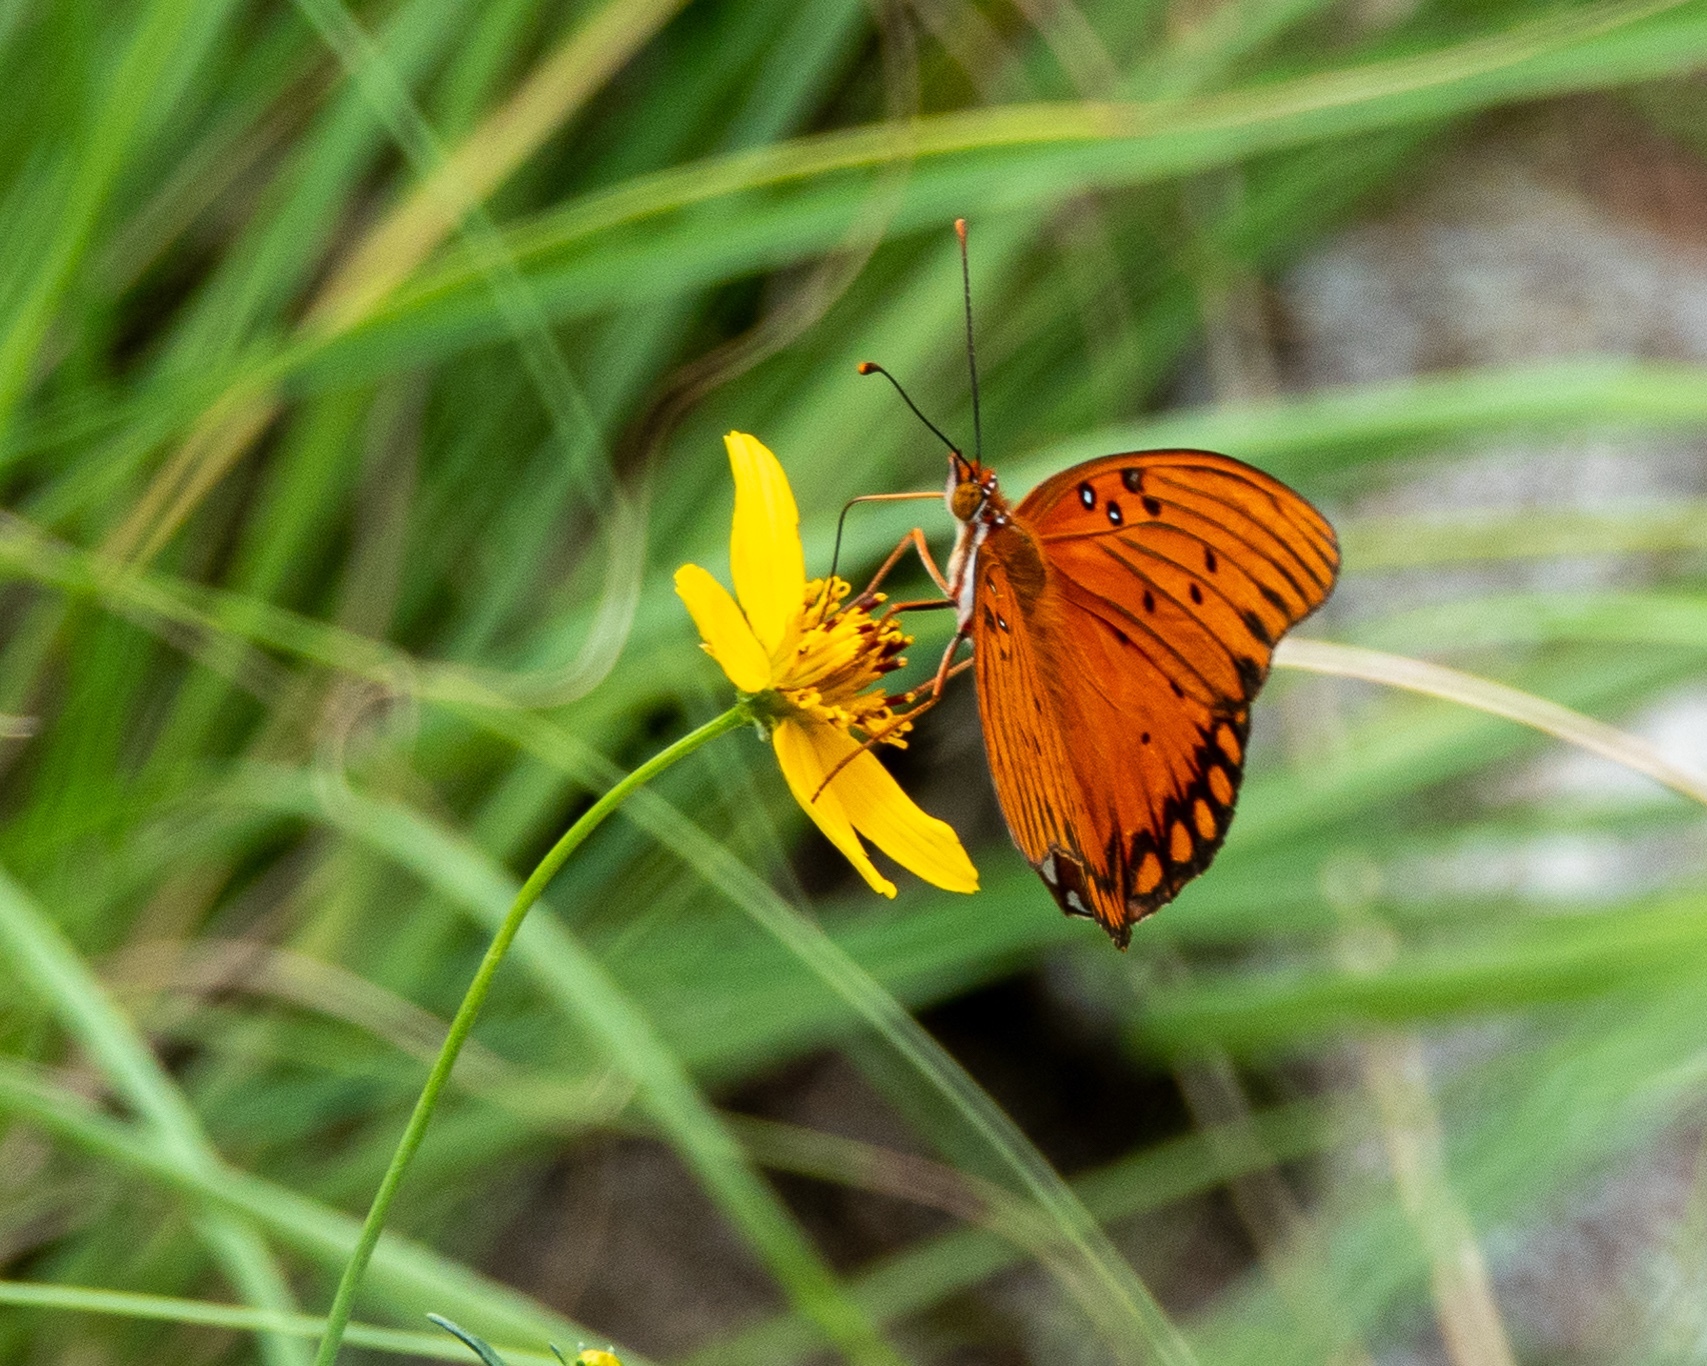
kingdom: Animalia
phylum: Arthropoda
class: Insecta
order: Lepidoptera
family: Nymphalidae
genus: Dione
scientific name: Dione vanillae
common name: Gulf fritillary
